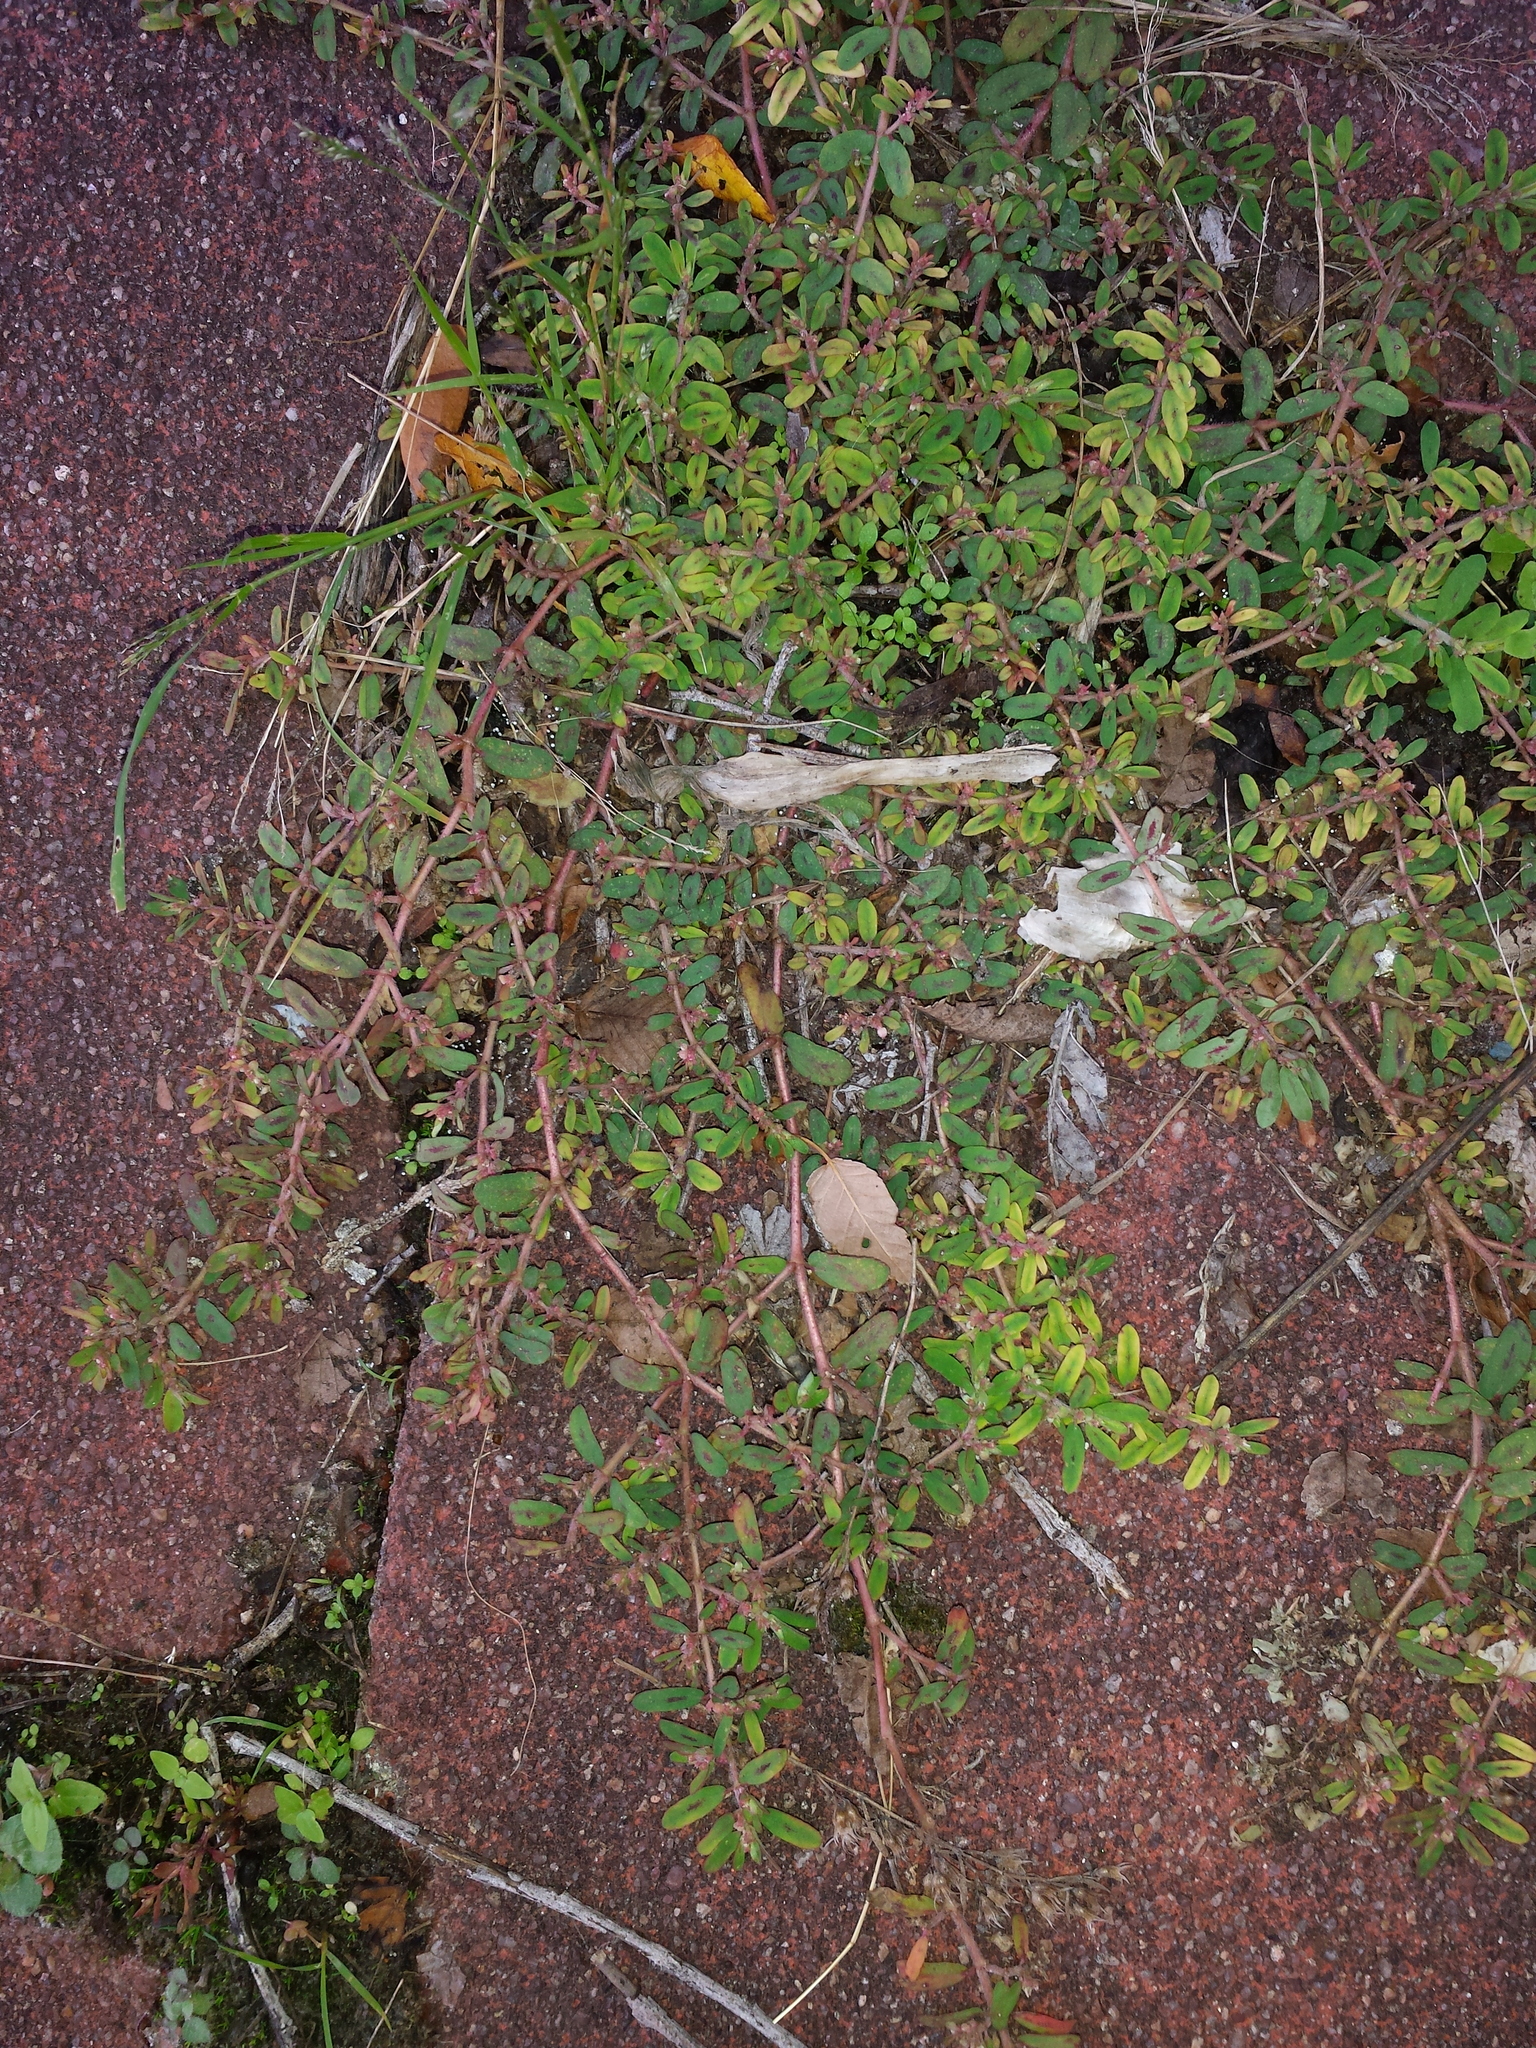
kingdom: Plantae
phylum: Tracheophyta
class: Magnoliopsida
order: Malpighiales
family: Euphorbiaceae
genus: Euphorbia
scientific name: Euphorbia maculata
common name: Spotted spurge
